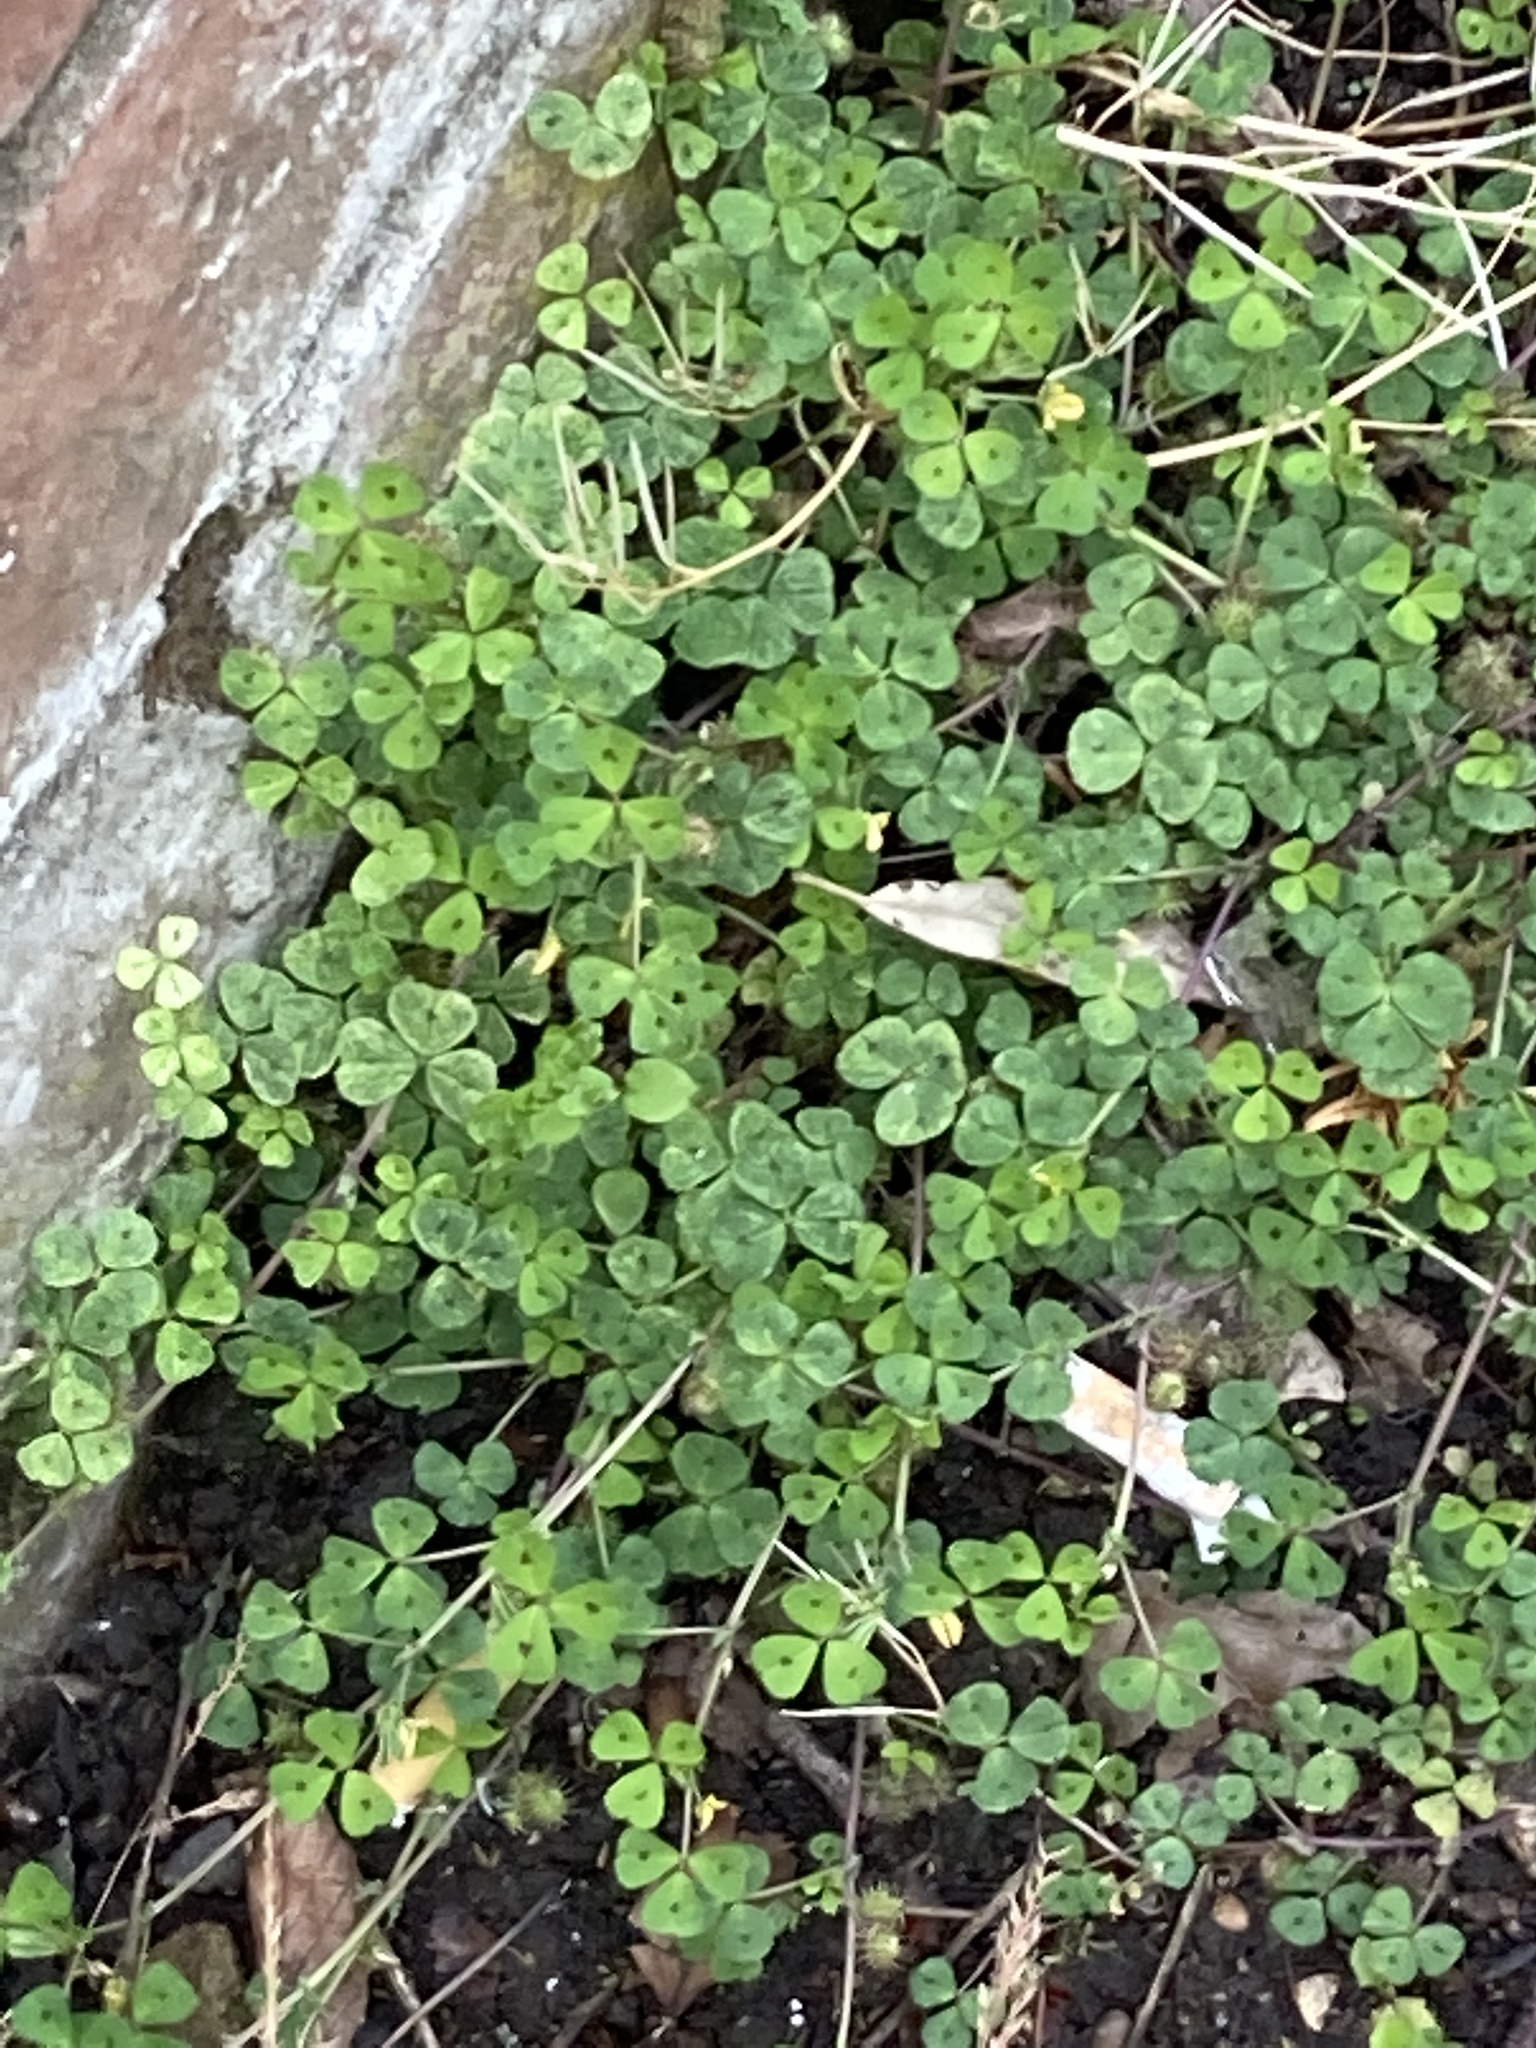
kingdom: Plantae
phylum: Tracheophyta
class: Magnoliopsida
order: Fabales
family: Fabaceae
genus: Medicago
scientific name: Medicago arabica
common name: Spotted medick
